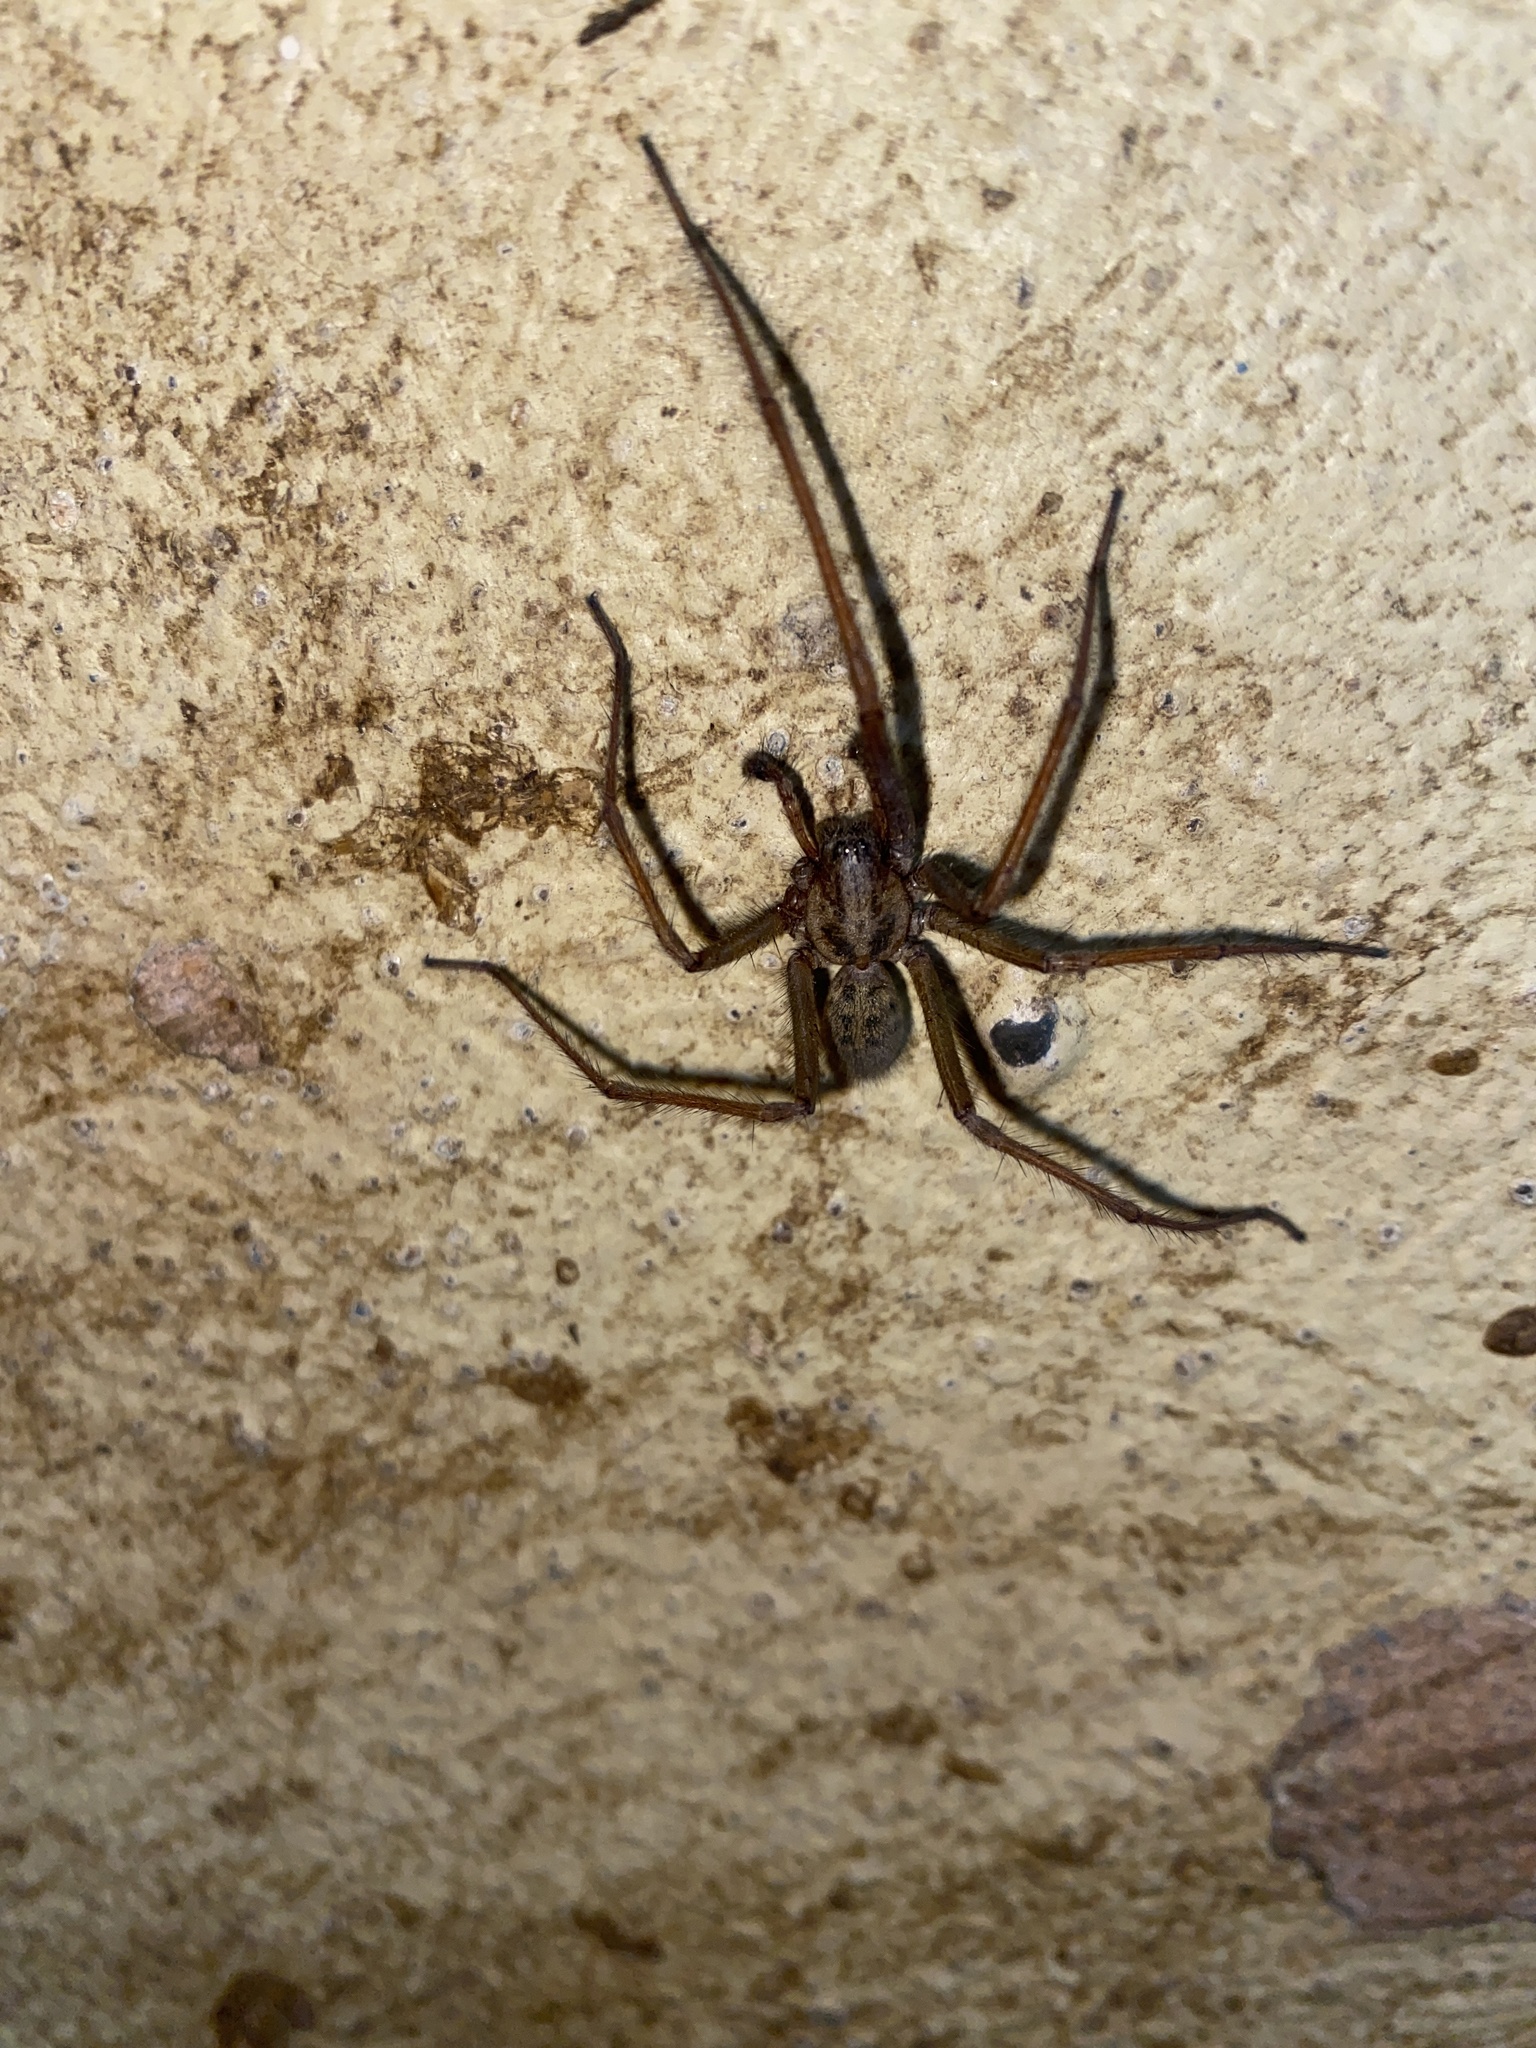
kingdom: Animalia
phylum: Arthropoda
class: Arachnida
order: Araneae
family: Agelenidae
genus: Eratigena
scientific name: Eratigena duellica
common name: Giant house spider
